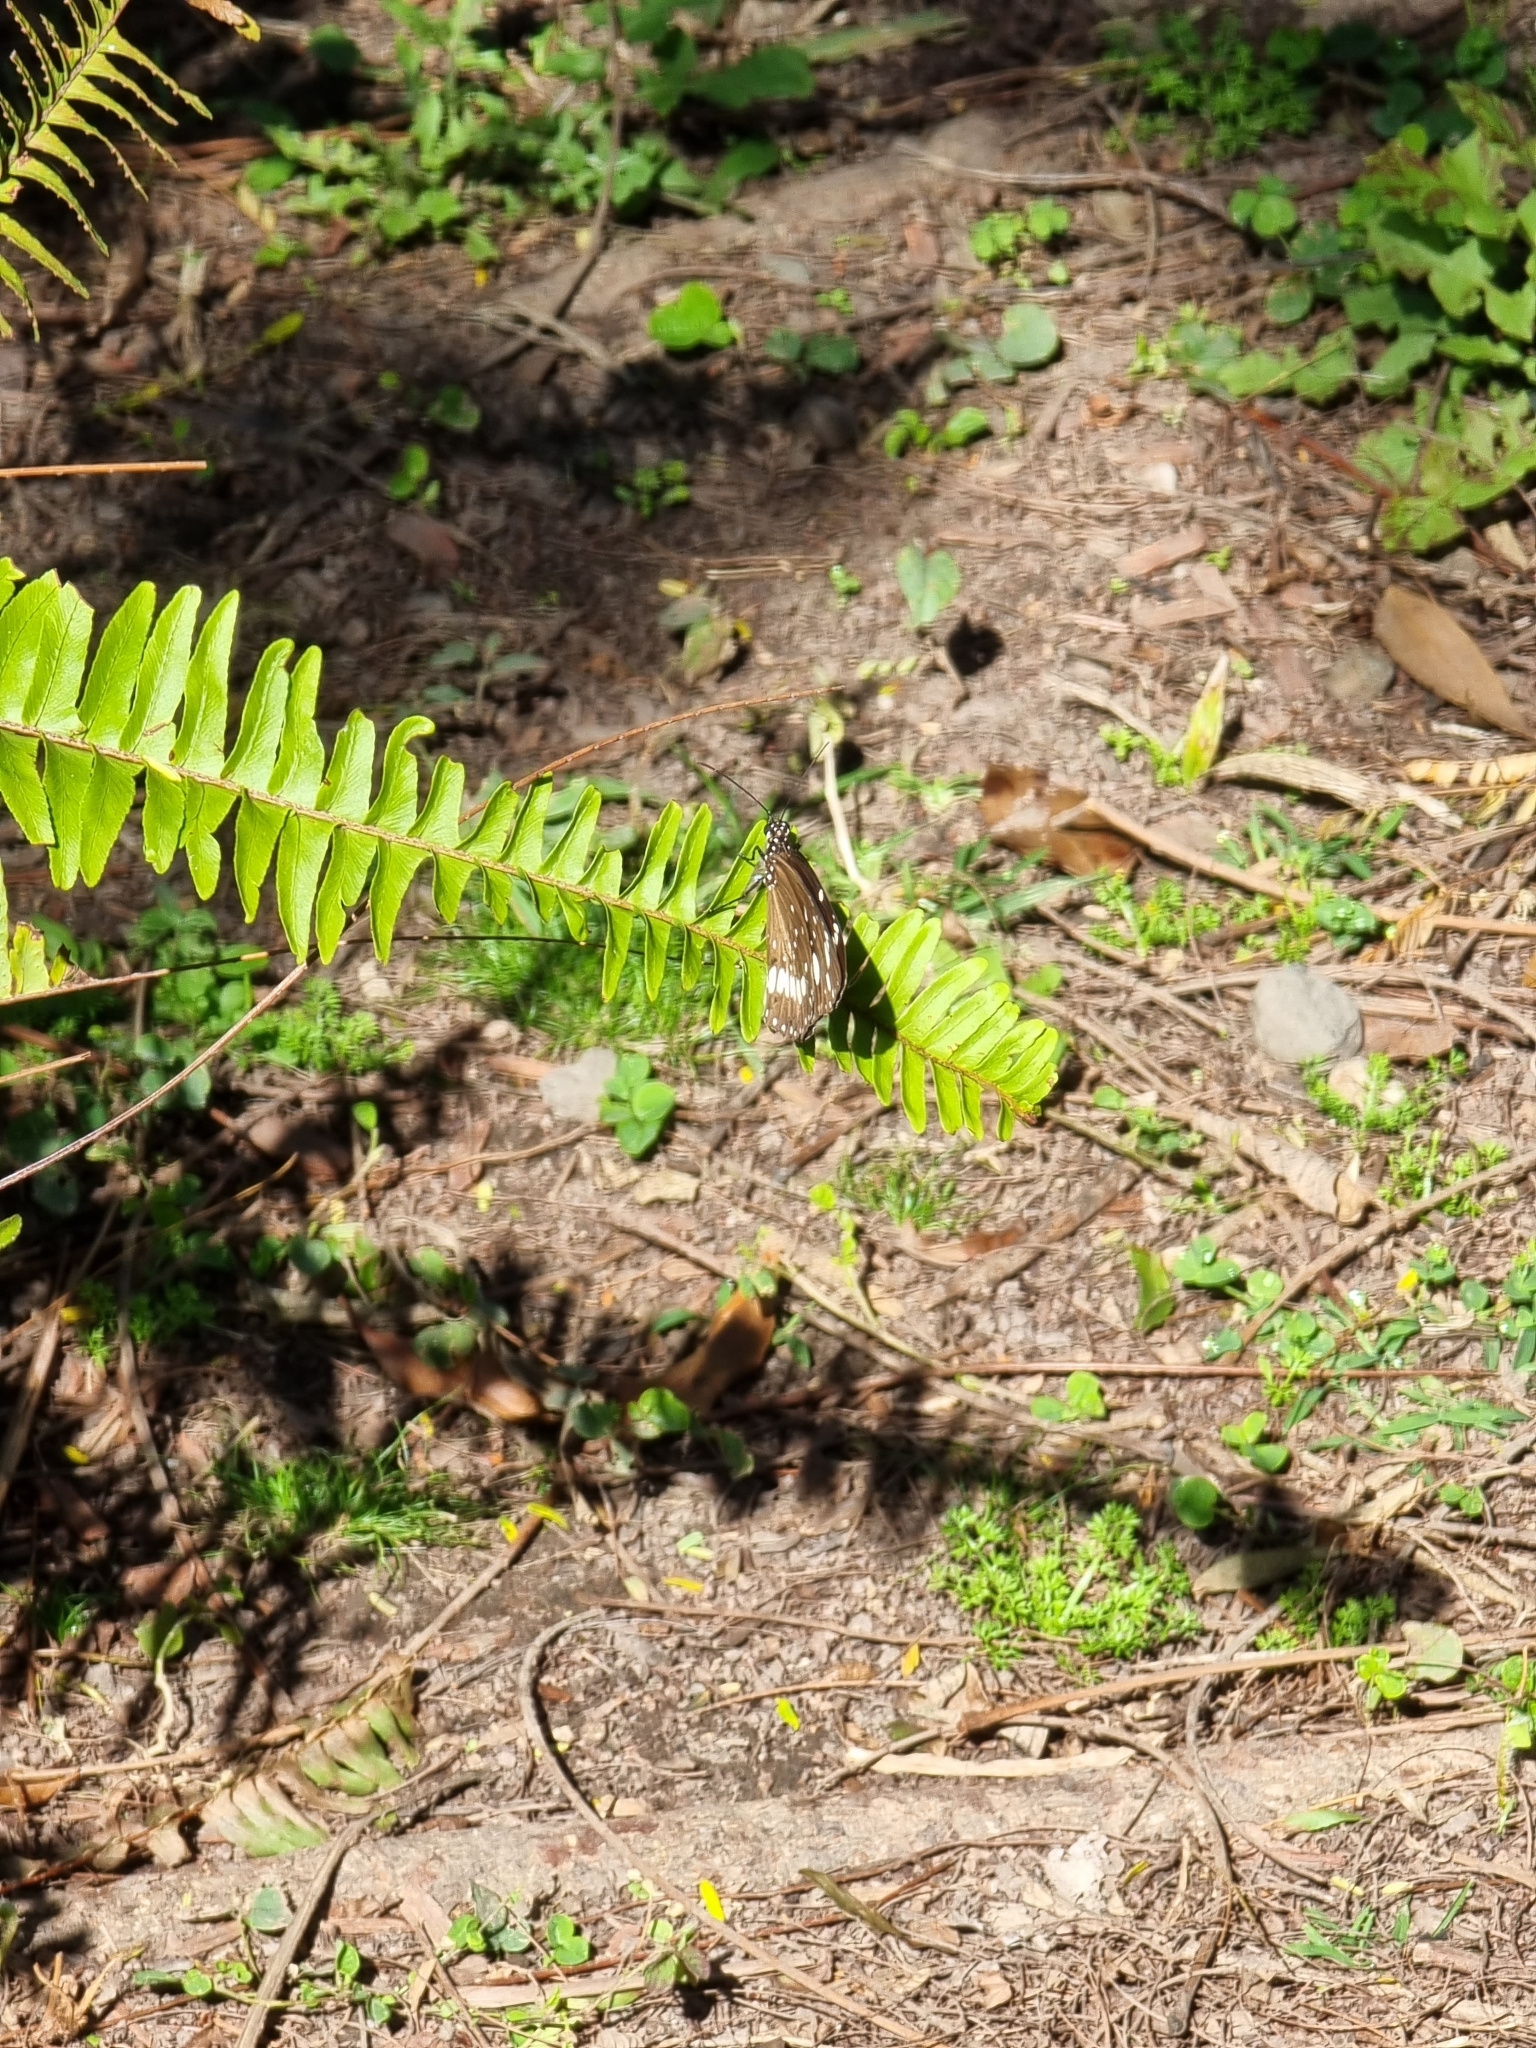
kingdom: Animalia
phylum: Arthropoda
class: Insecta
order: Lepidoptera
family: Nymphalidae
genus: Euploea
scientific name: Euploea core
